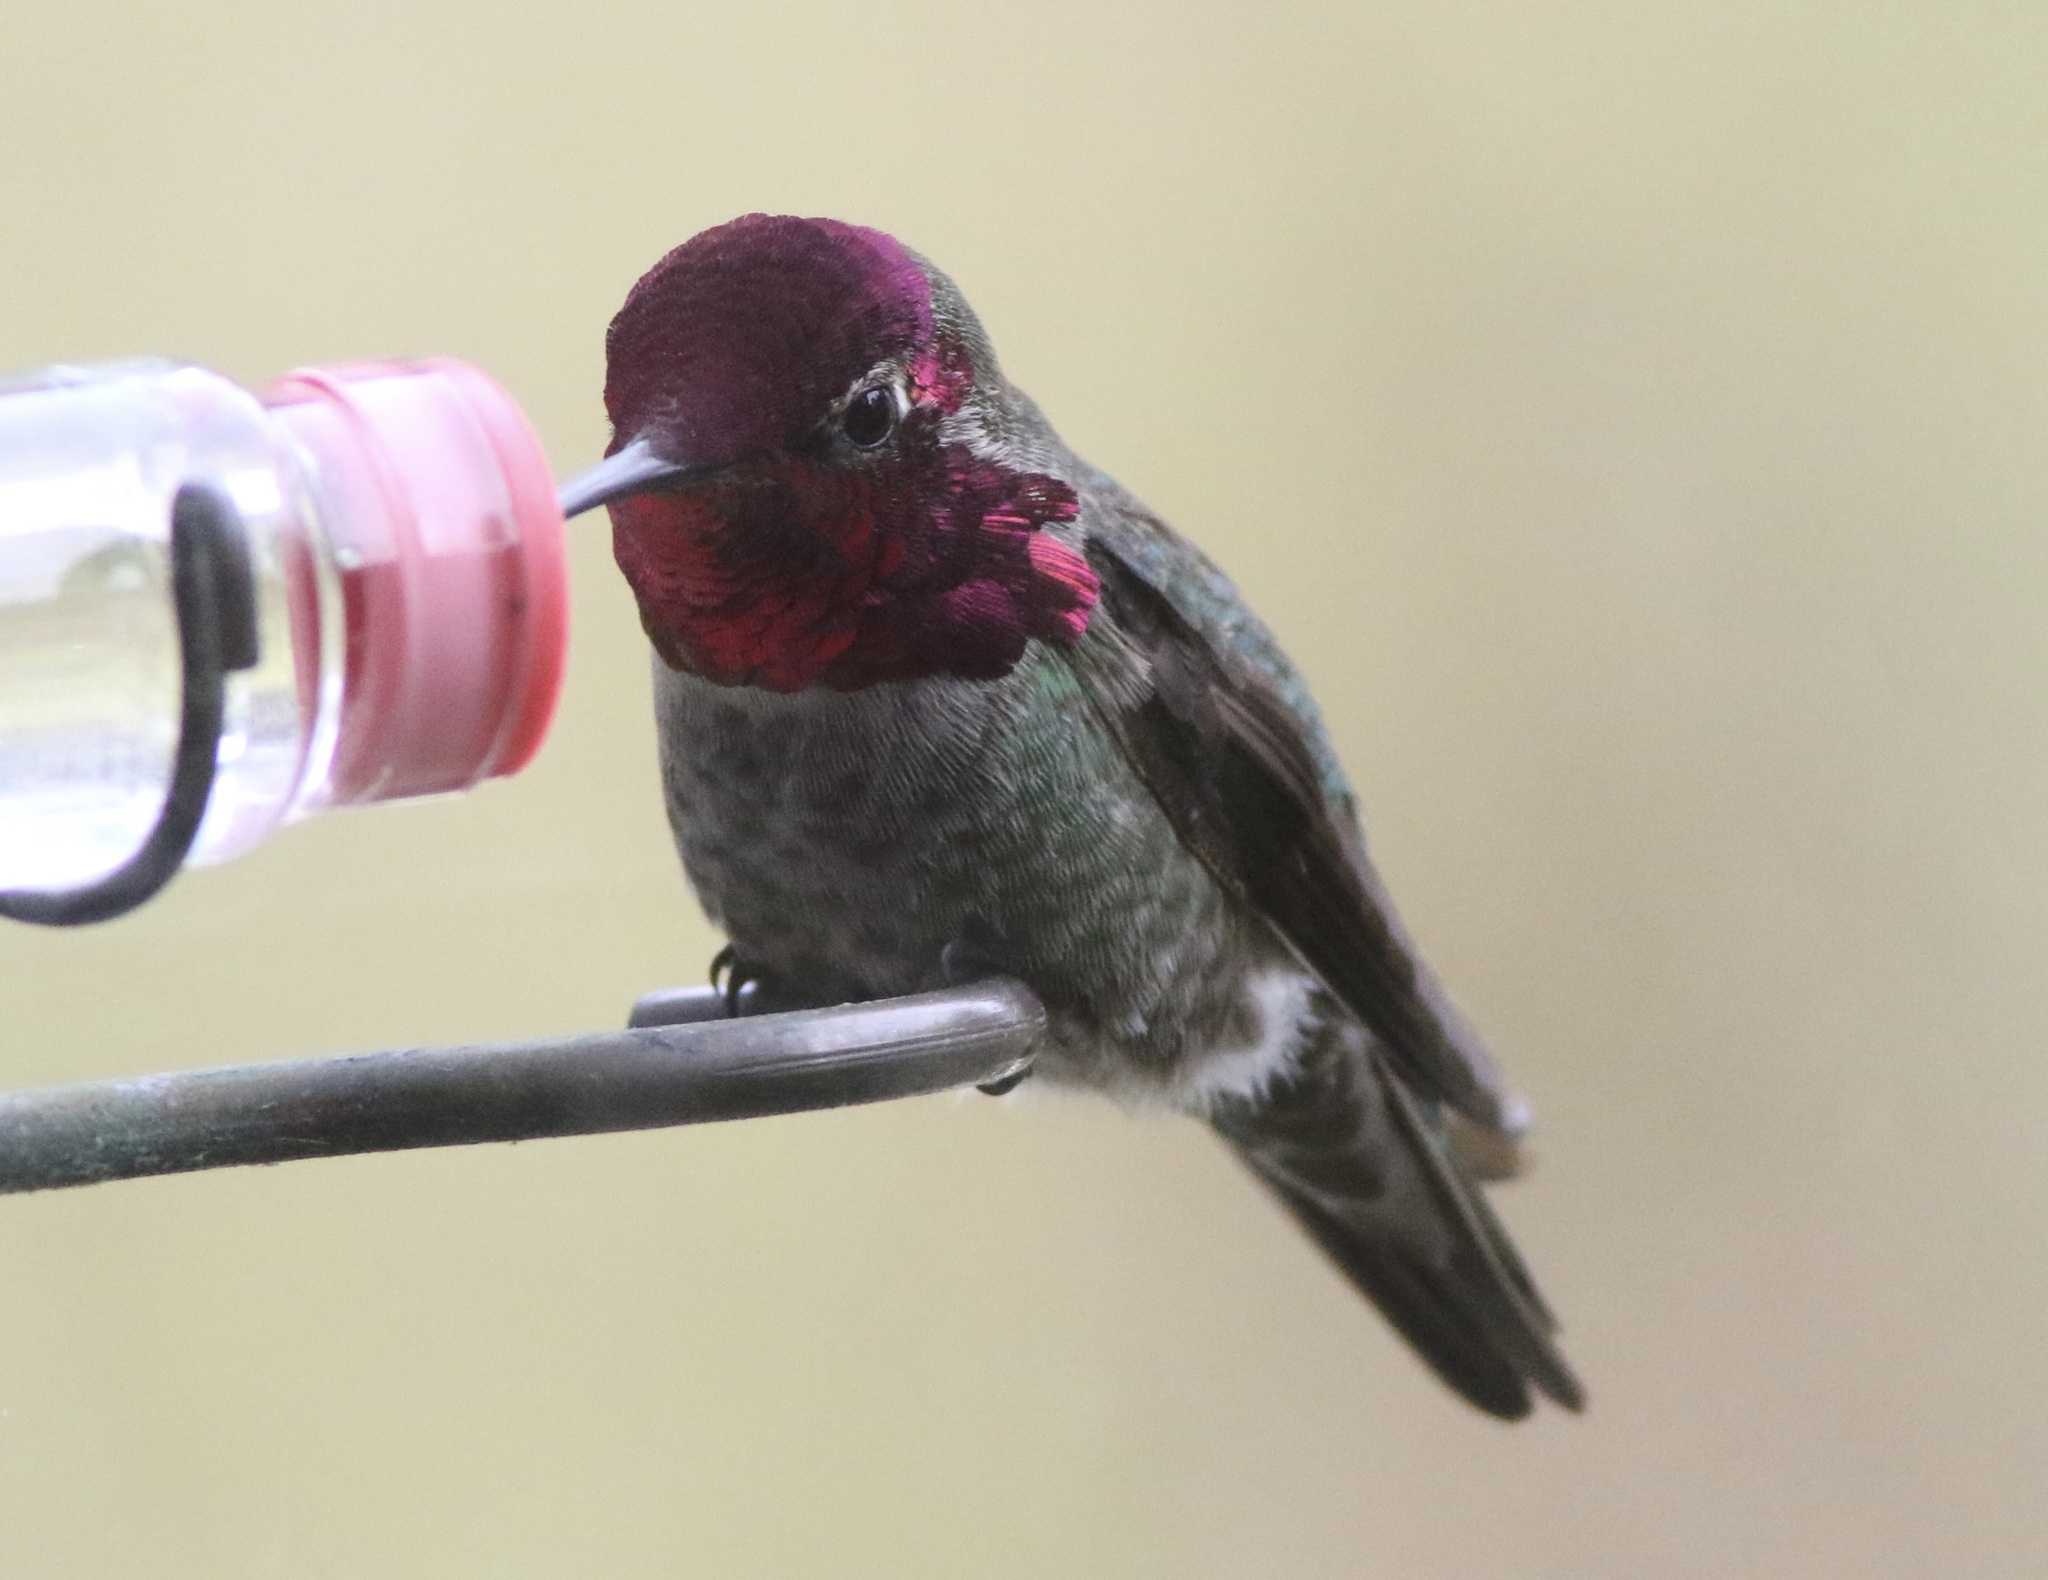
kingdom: Animalia
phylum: Chordata
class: Aves
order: Apodiformes
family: Trochilidae
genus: Calypte
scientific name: Calypte anna
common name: Anna's hummingbird
